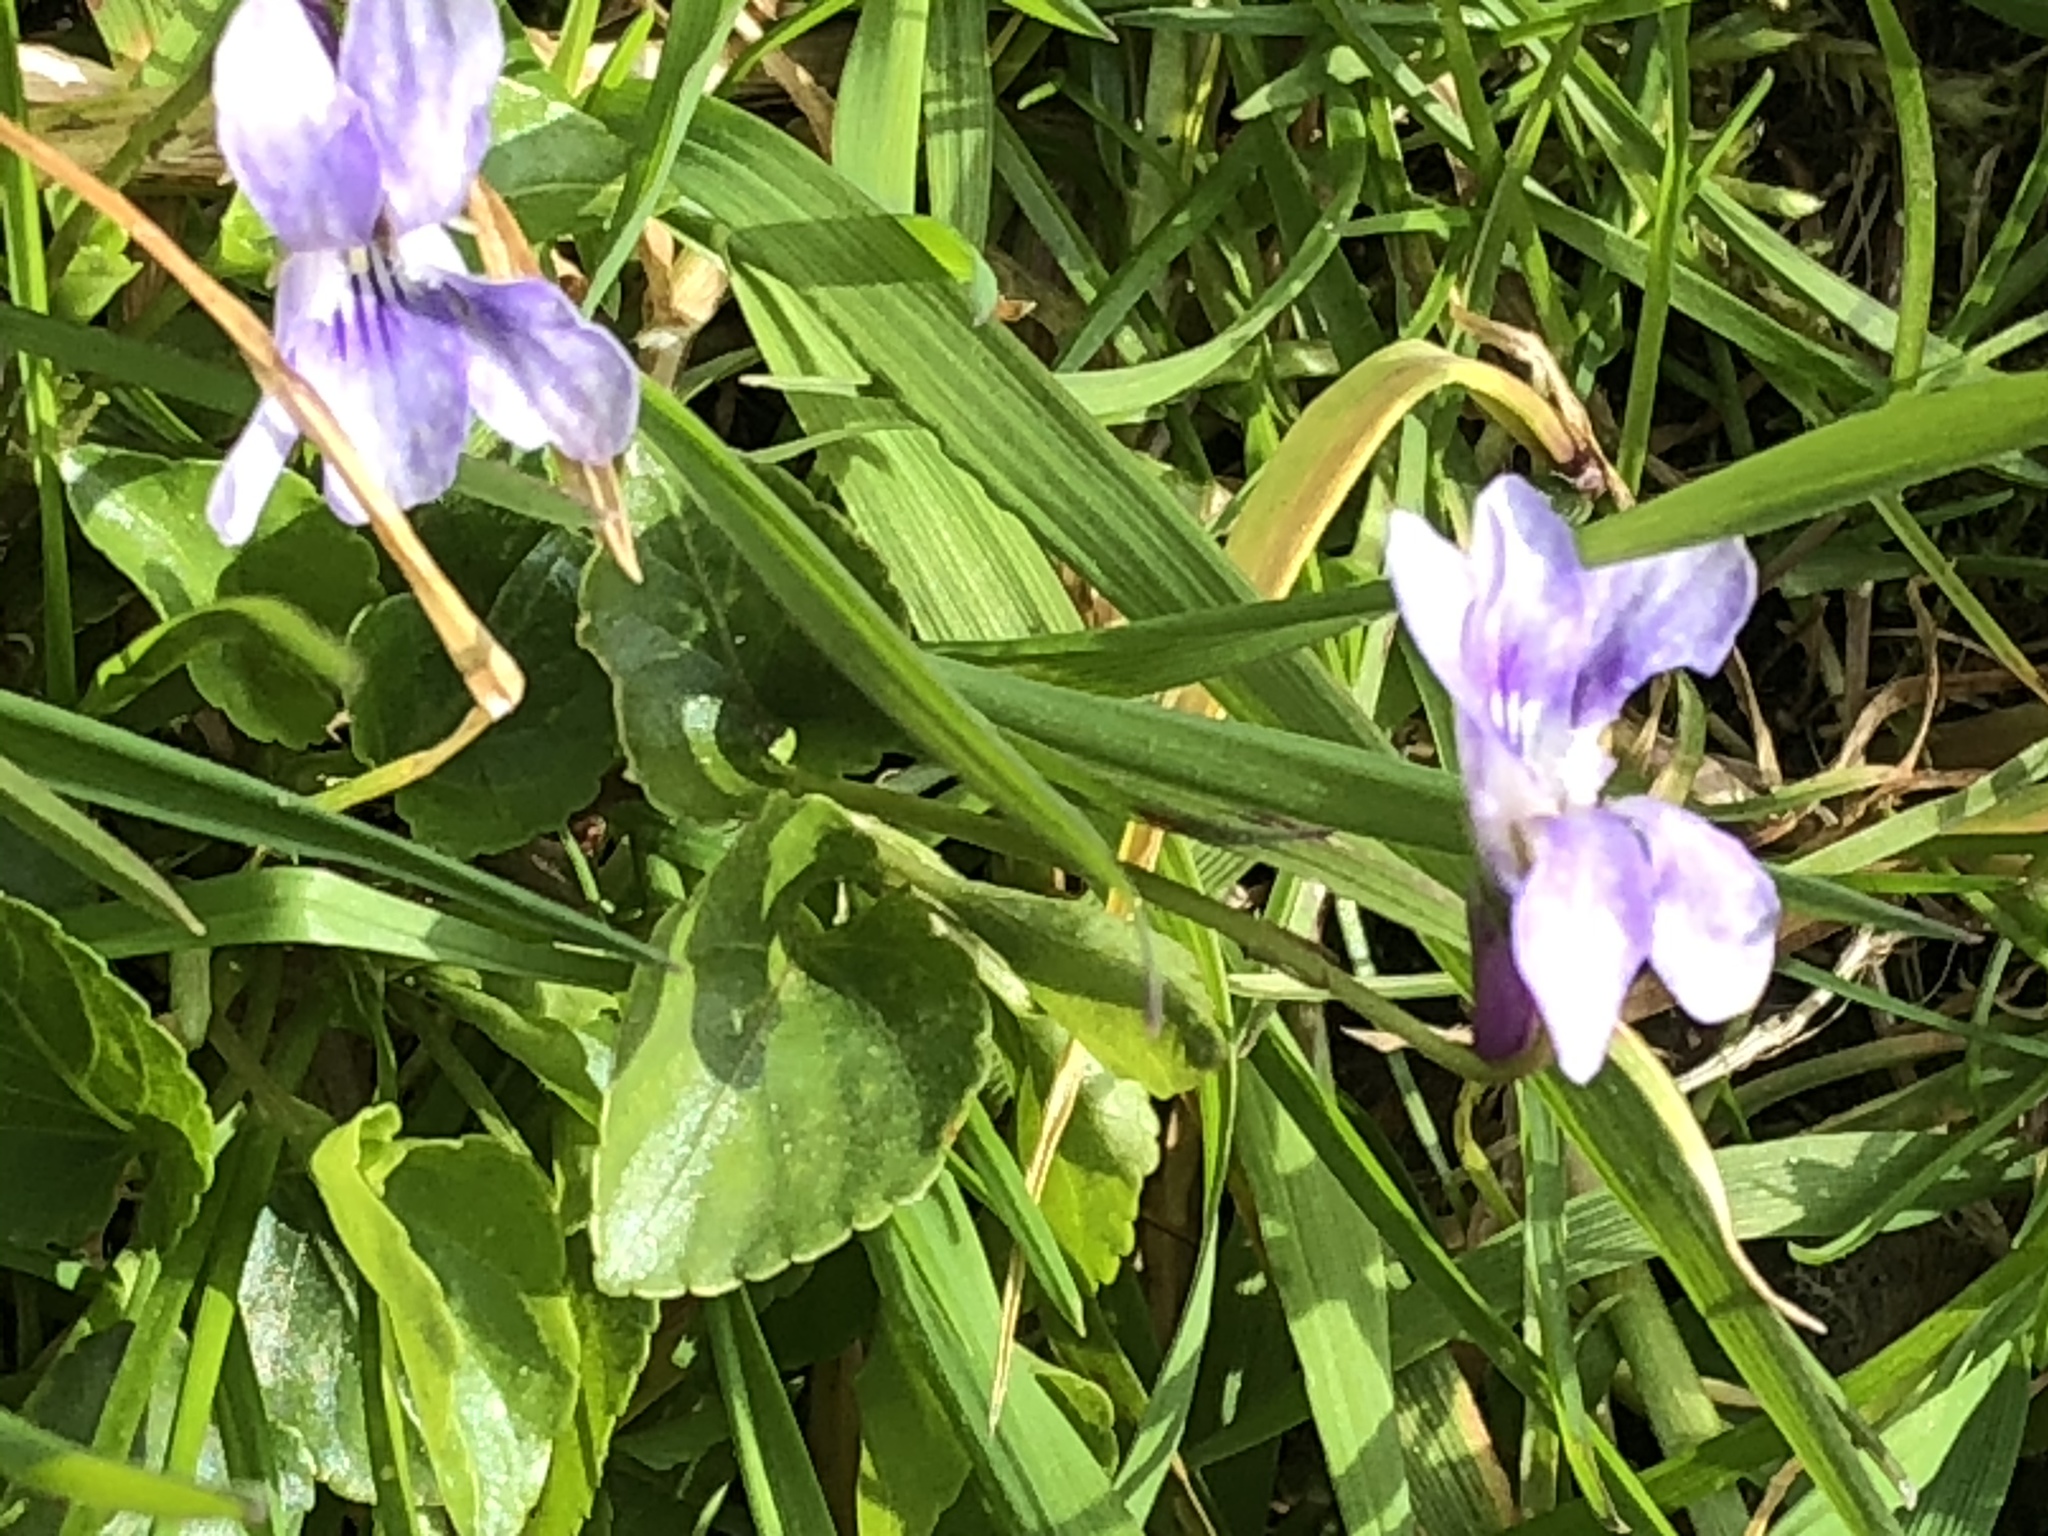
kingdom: Plantae
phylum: Tracheophyta
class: Magnoliopsida
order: Malpighiales
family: Violaceae
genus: Viola
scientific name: Viola reichenbachiana
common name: Early dog-violet
